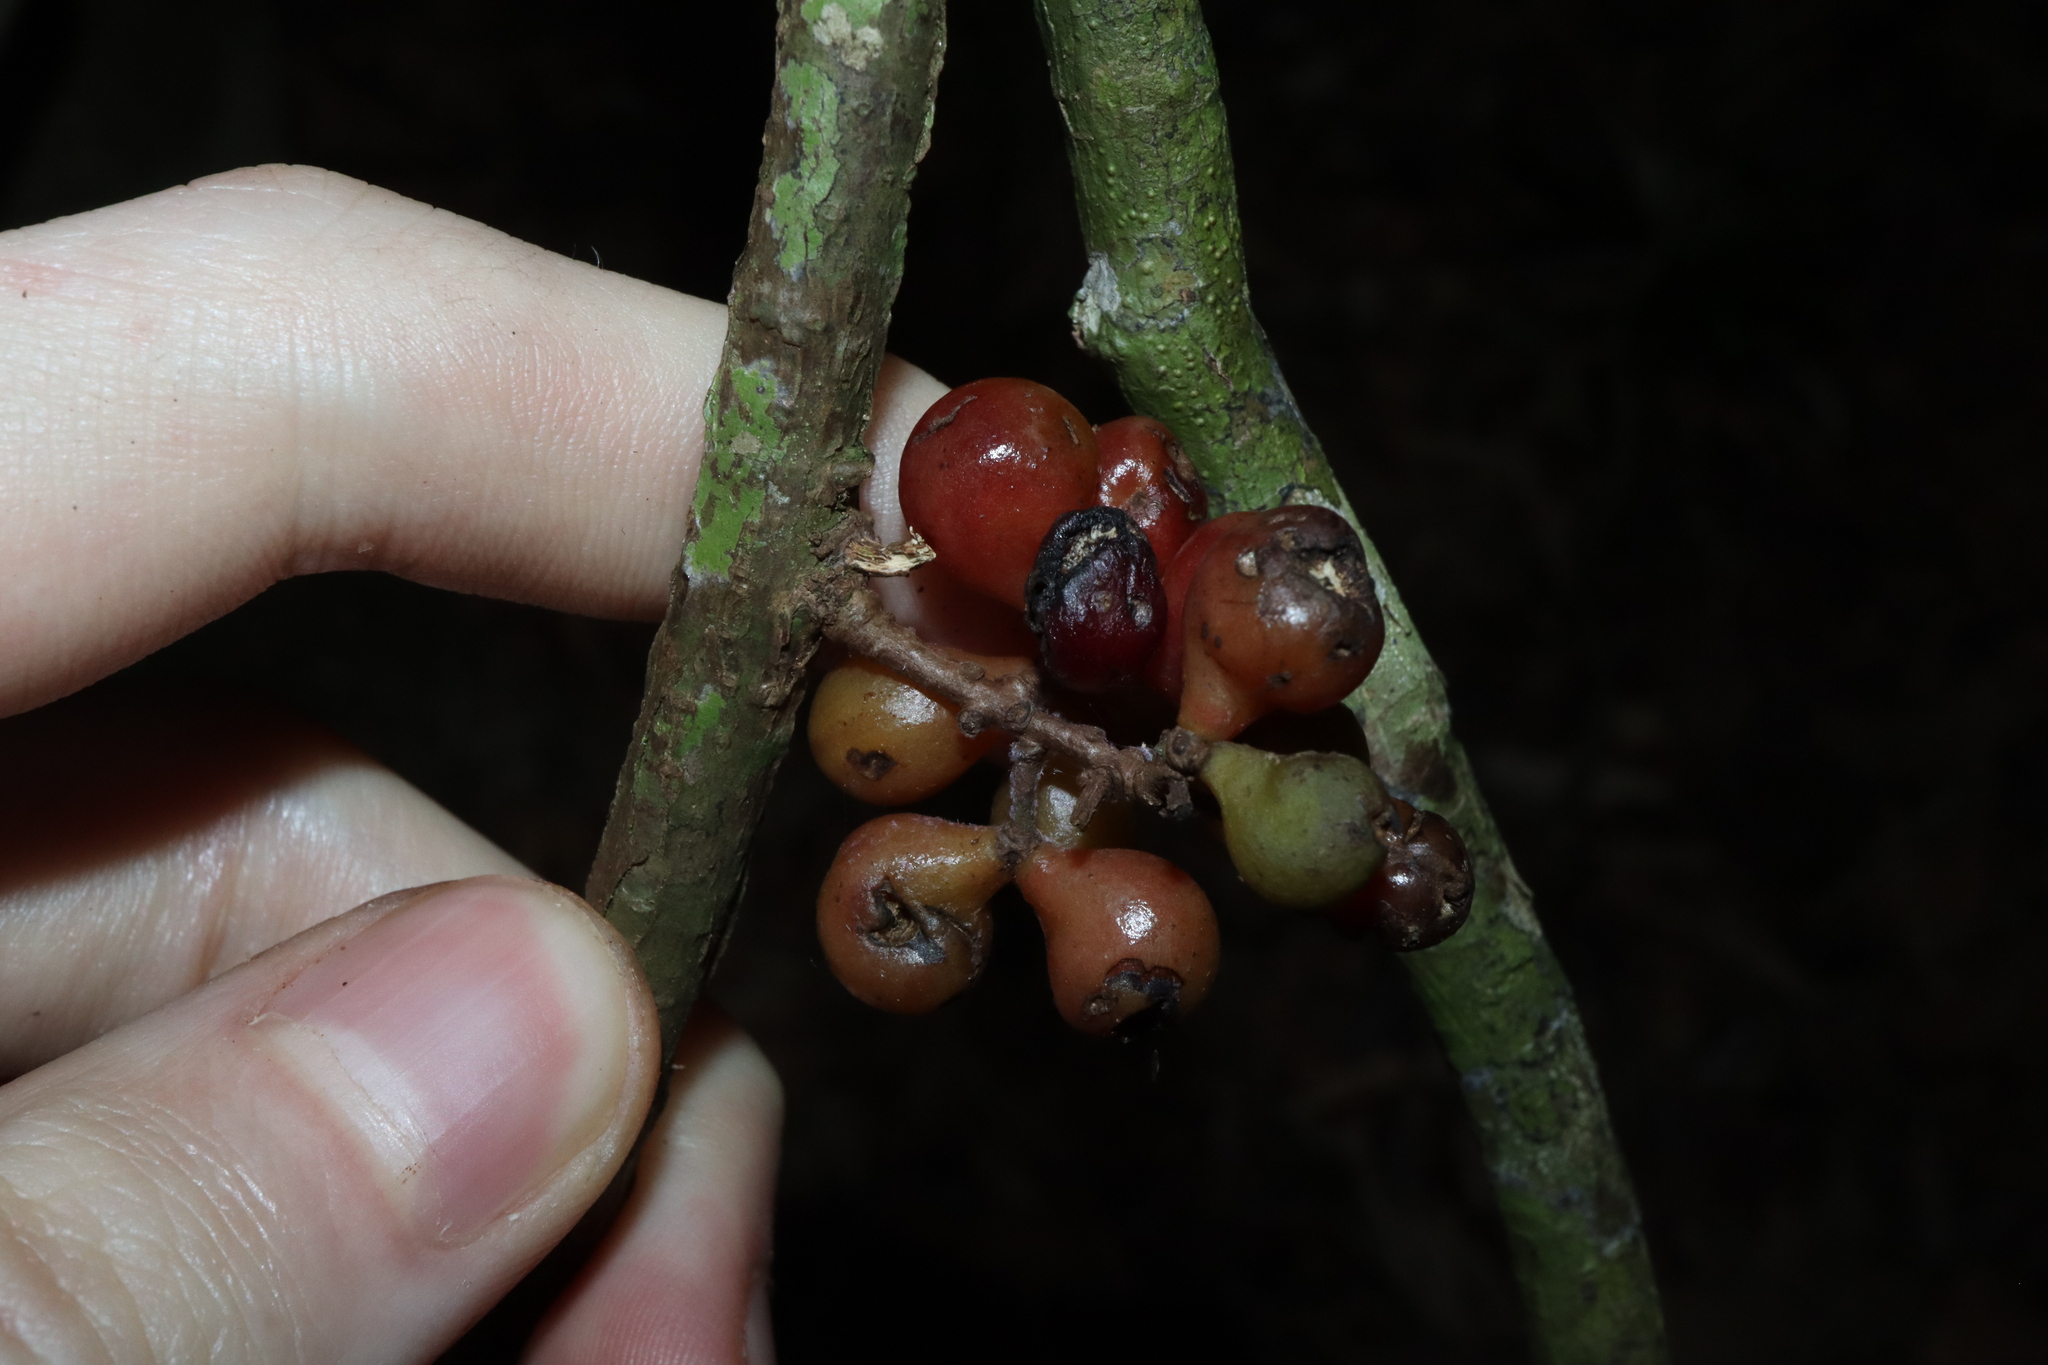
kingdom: Plantae
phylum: Tracheophyta
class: Magnoliopsida
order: Ranunculales
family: Menispermaceae
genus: Sarcopetalum
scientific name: Sarcopetalum harveyanum
